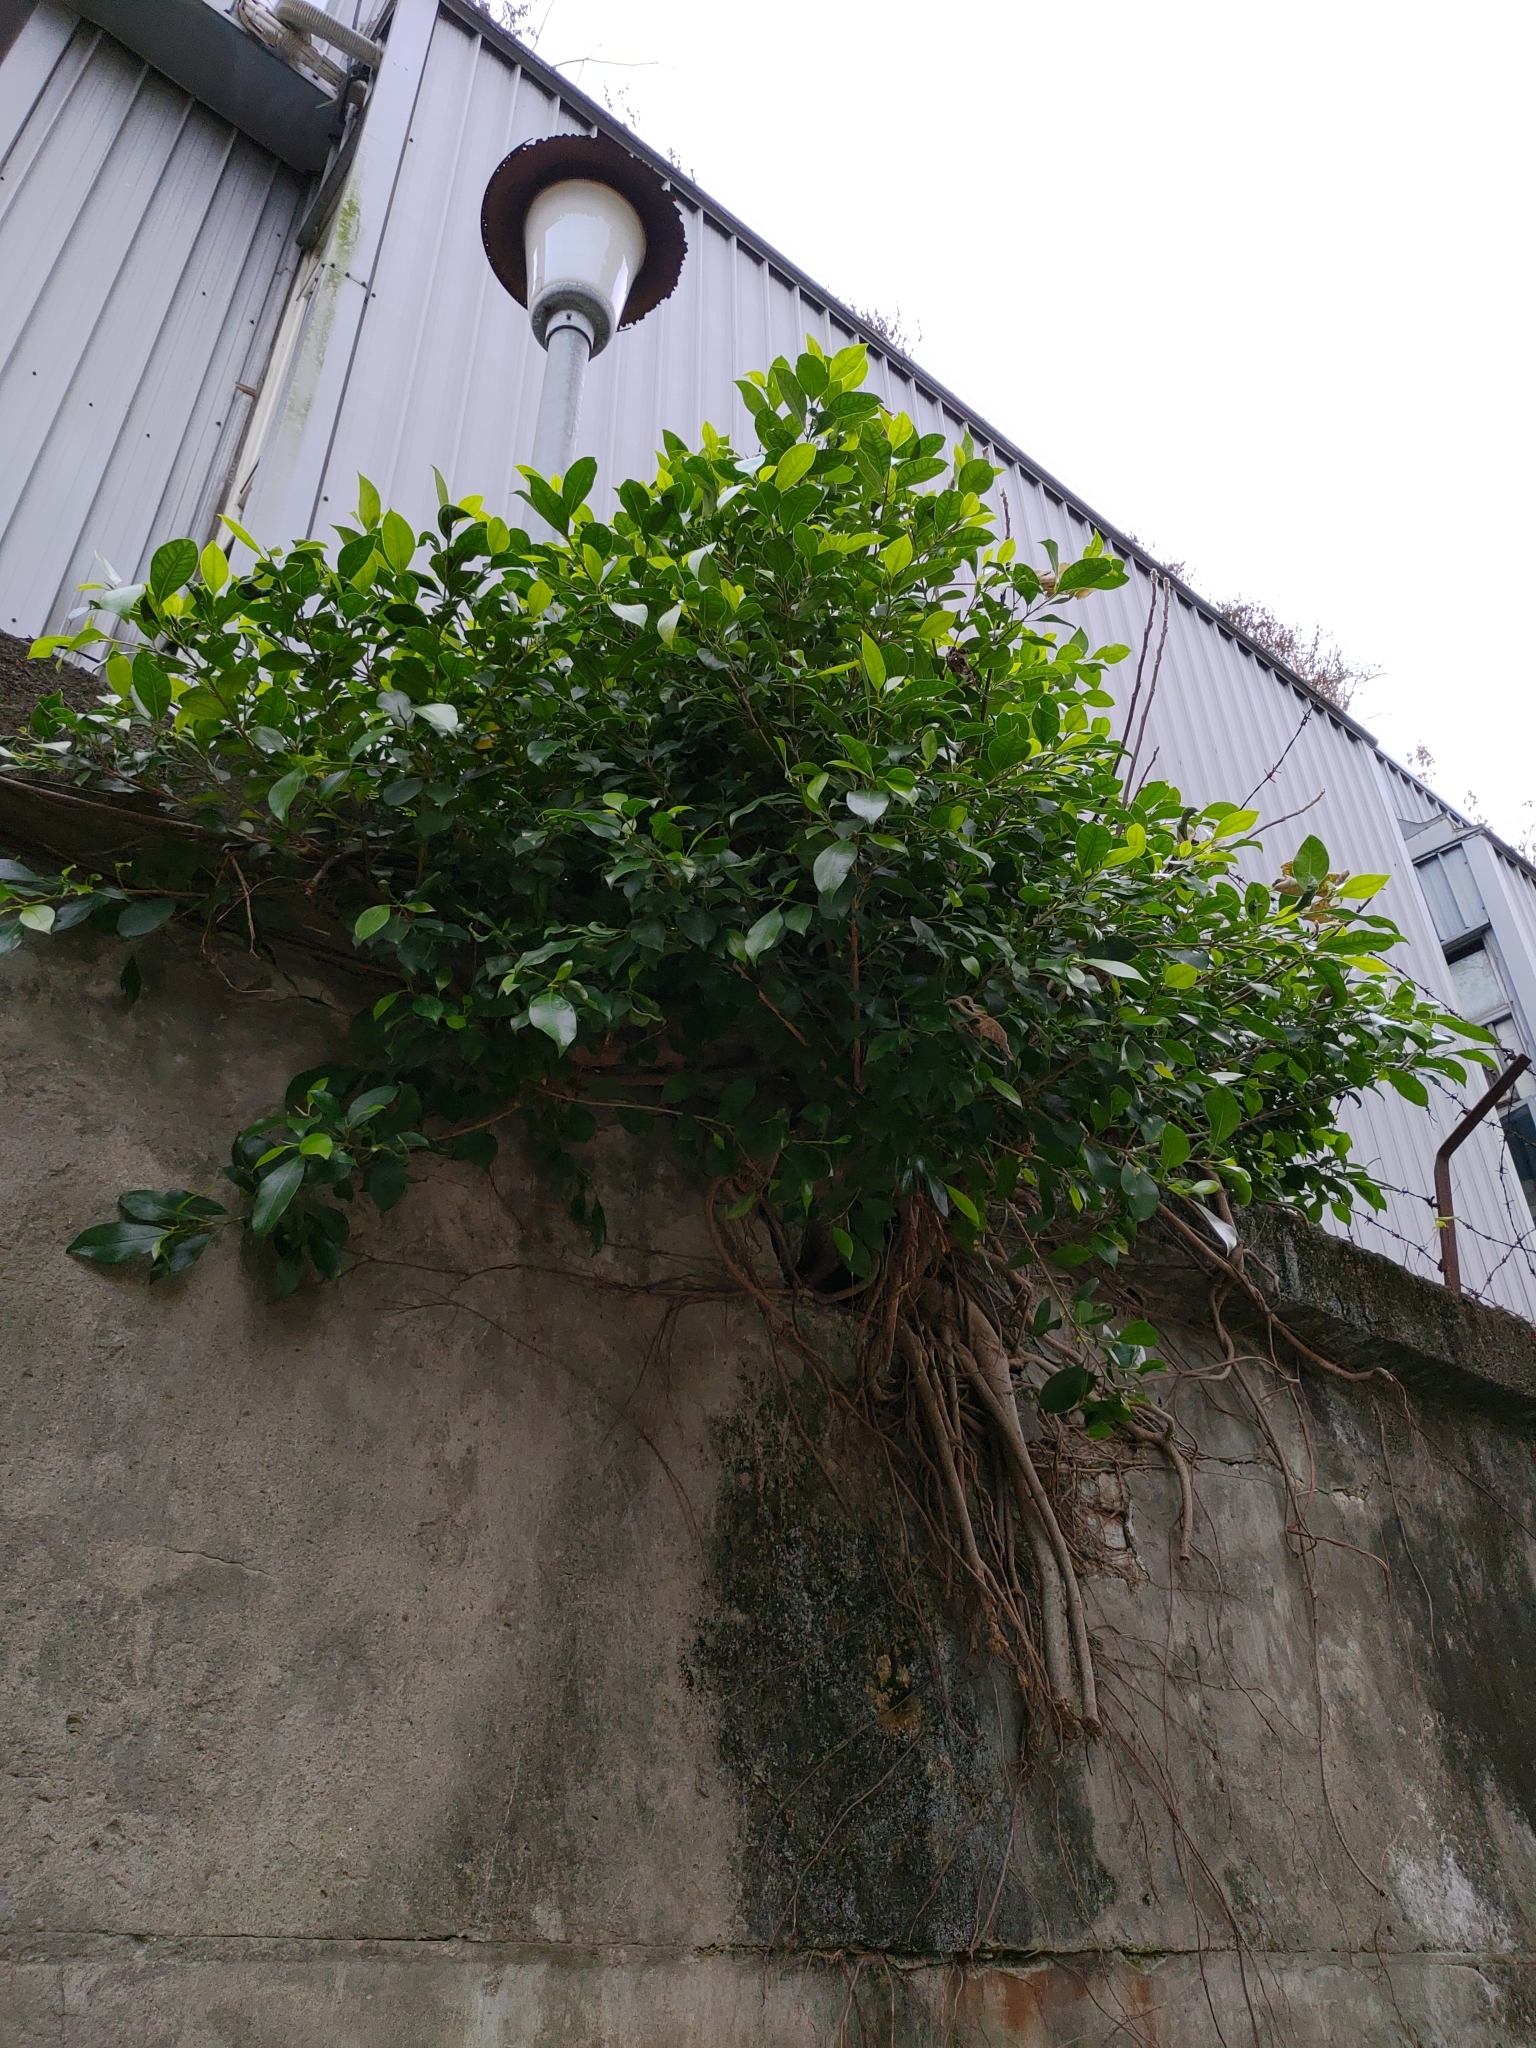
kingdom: Plantae
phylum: Tracheophyta
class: Magnoliopsida
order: Rosales
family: Moraceae
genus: Ficus
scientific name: Ficus microcarpa
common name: Chinese banyan
